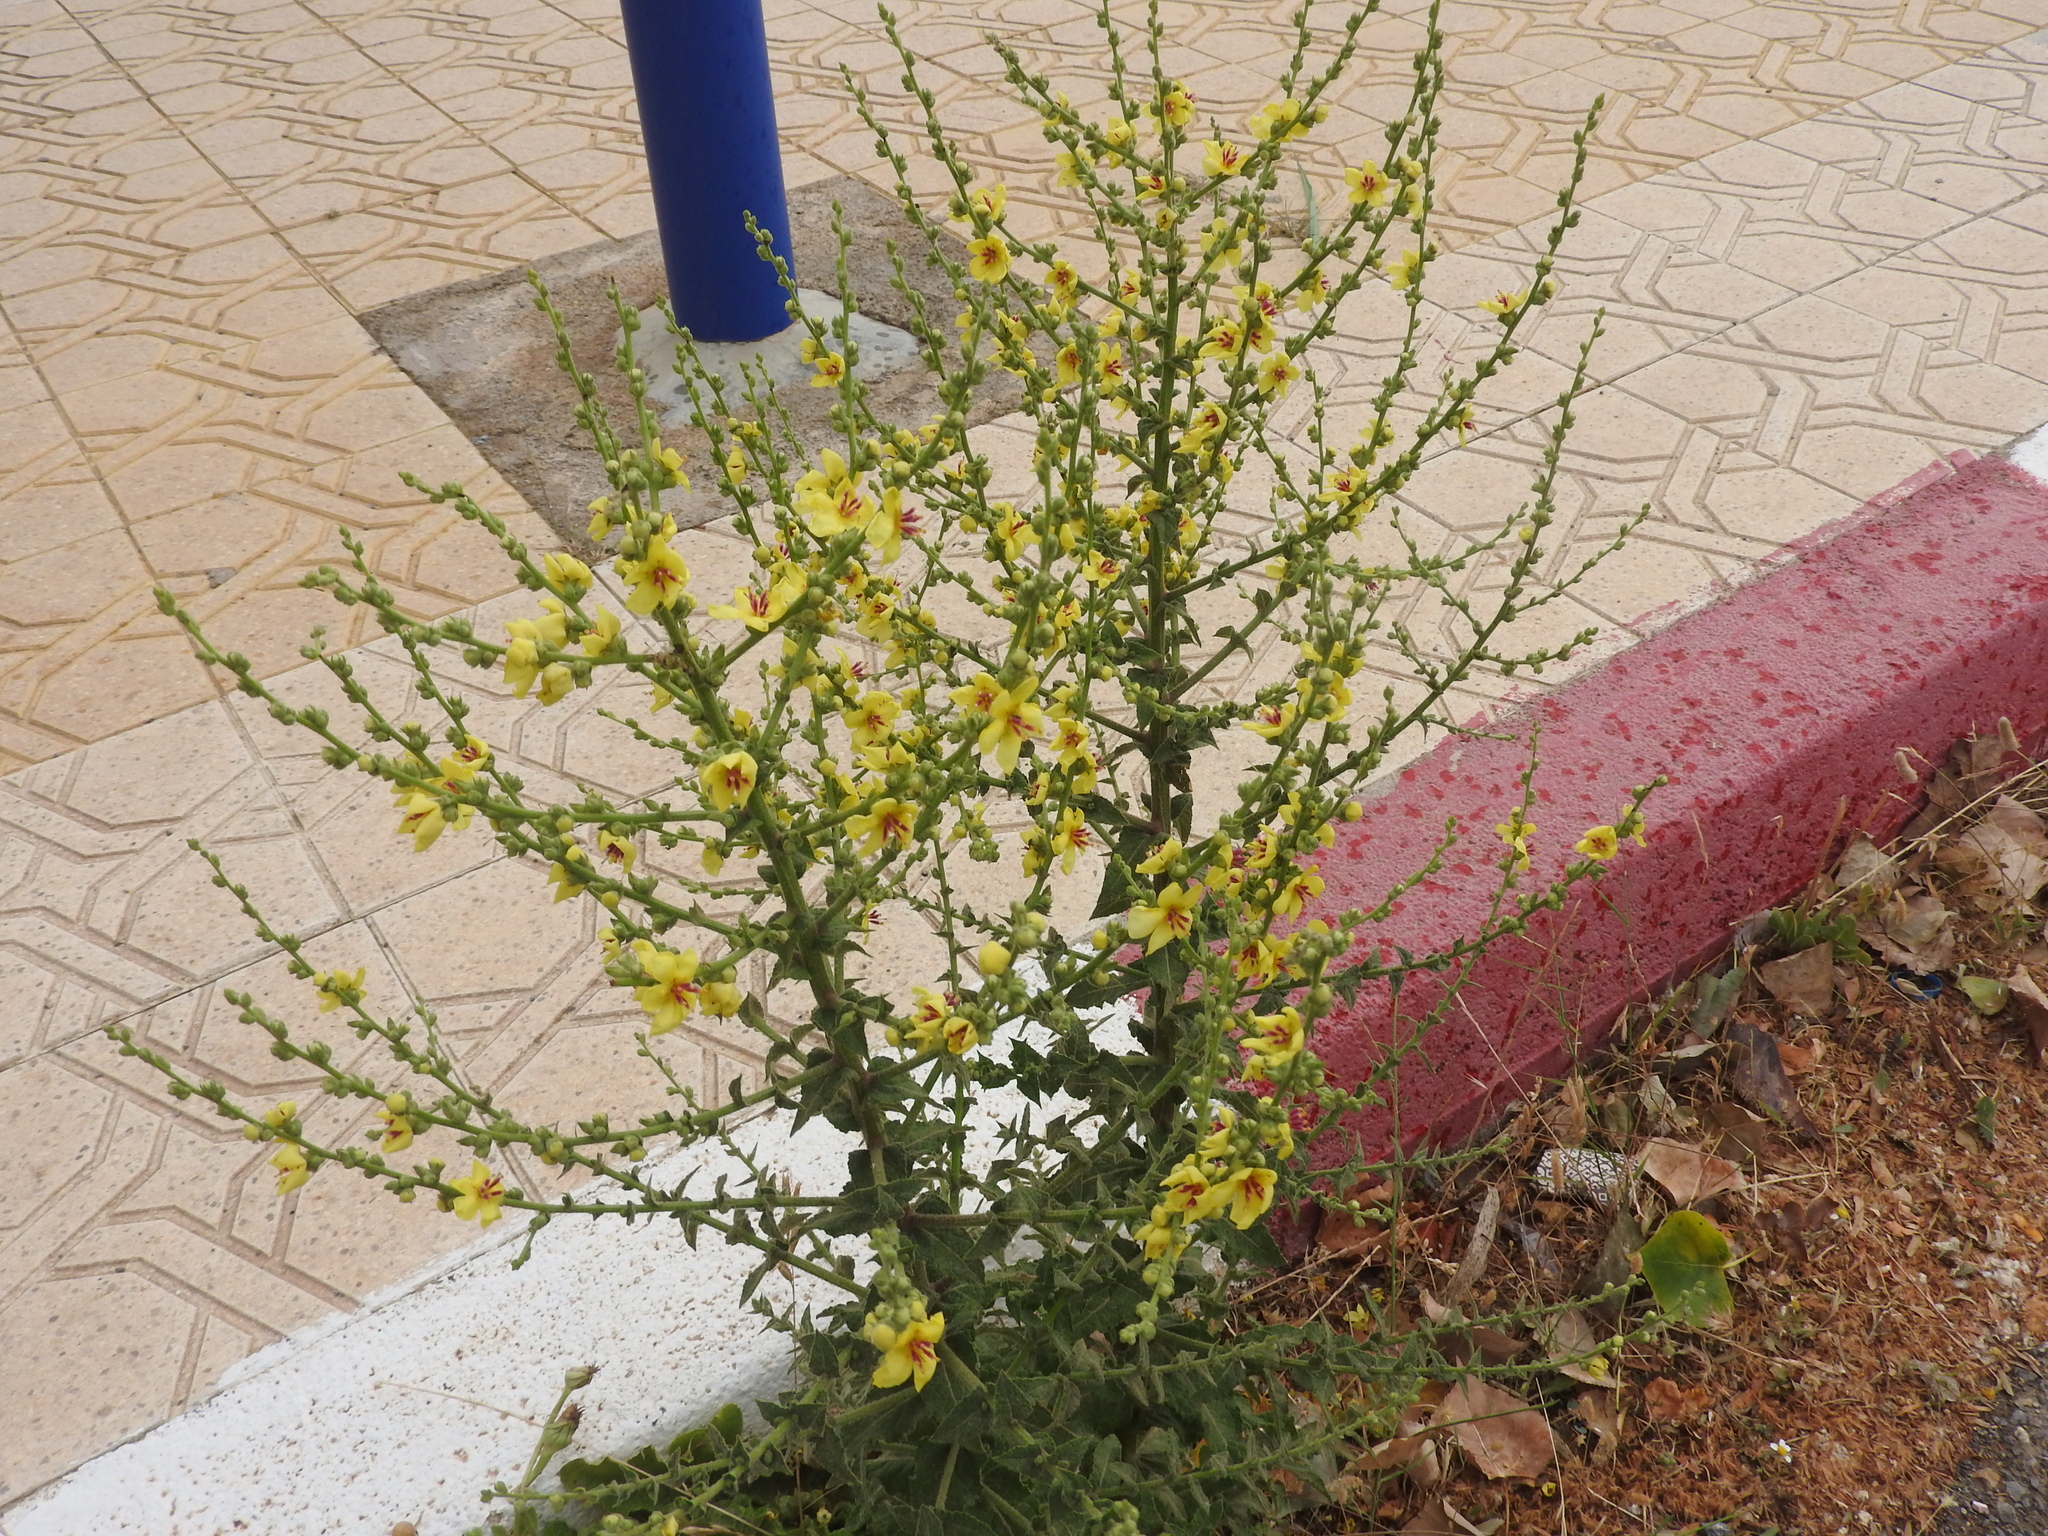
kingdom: Plantae
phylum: Tracheophyta
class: Magnoliopsida
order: Lamiales
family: Scrophulariaceae
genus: Verbascum
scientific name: Verbascum sinuatum
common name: Wavyleaf mullein
